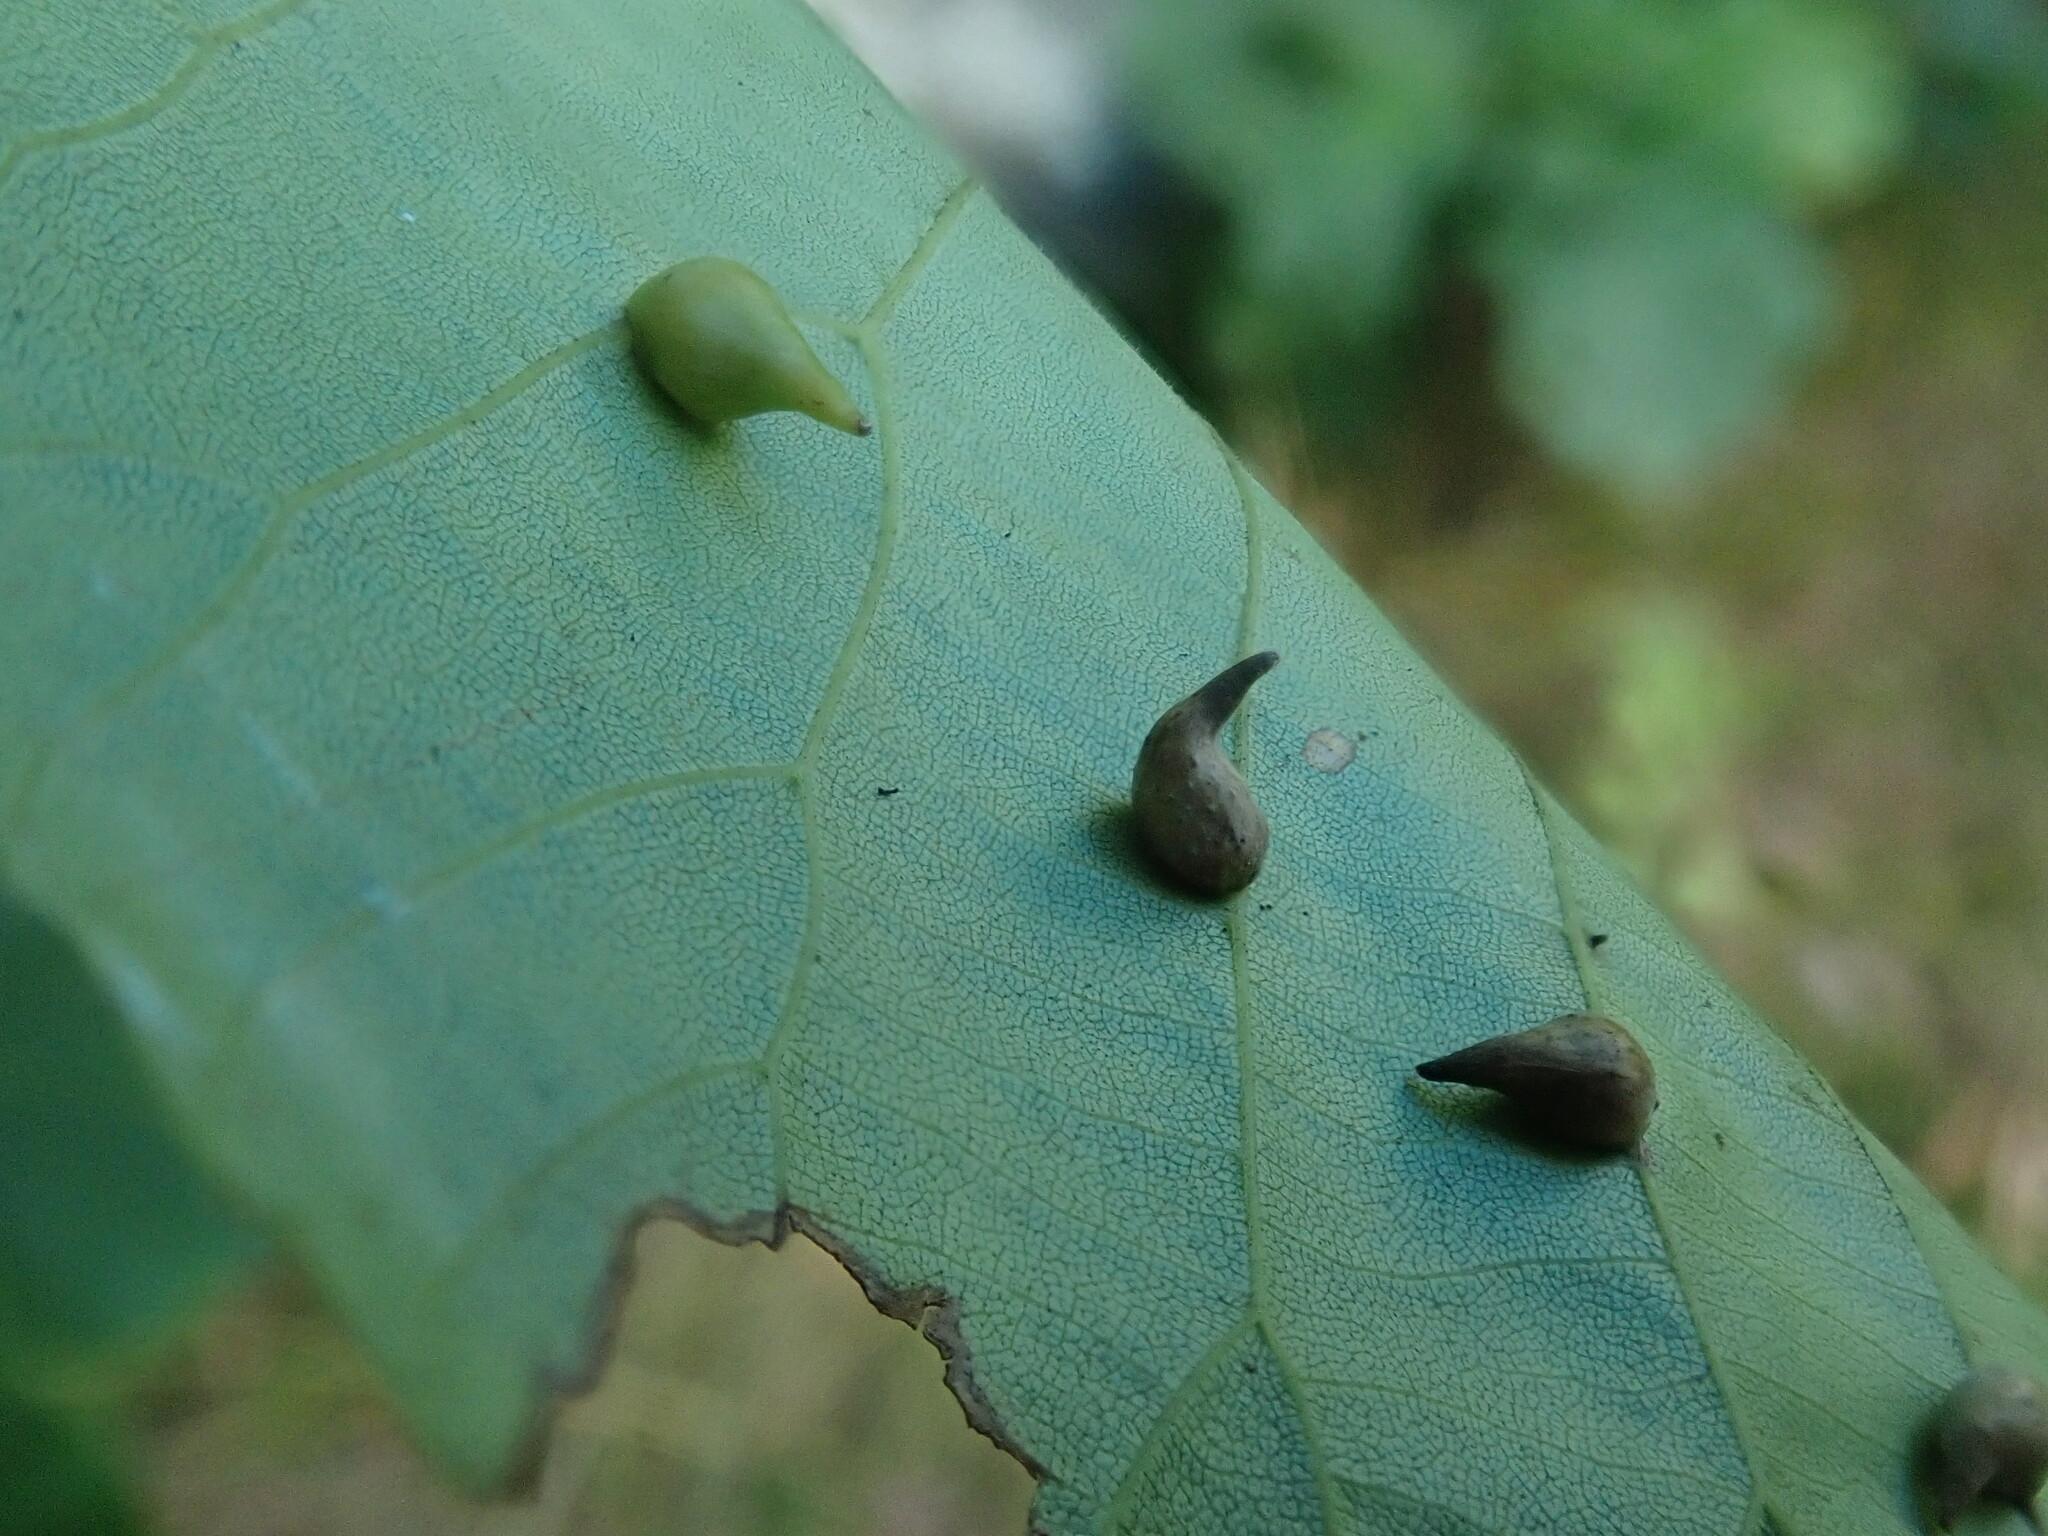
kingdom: Animalia
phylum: Arthropoda
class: Insecta
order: Diptera
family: Cecidomyiidae
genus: Caryomyia
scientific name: Caryomyia caryaecola
